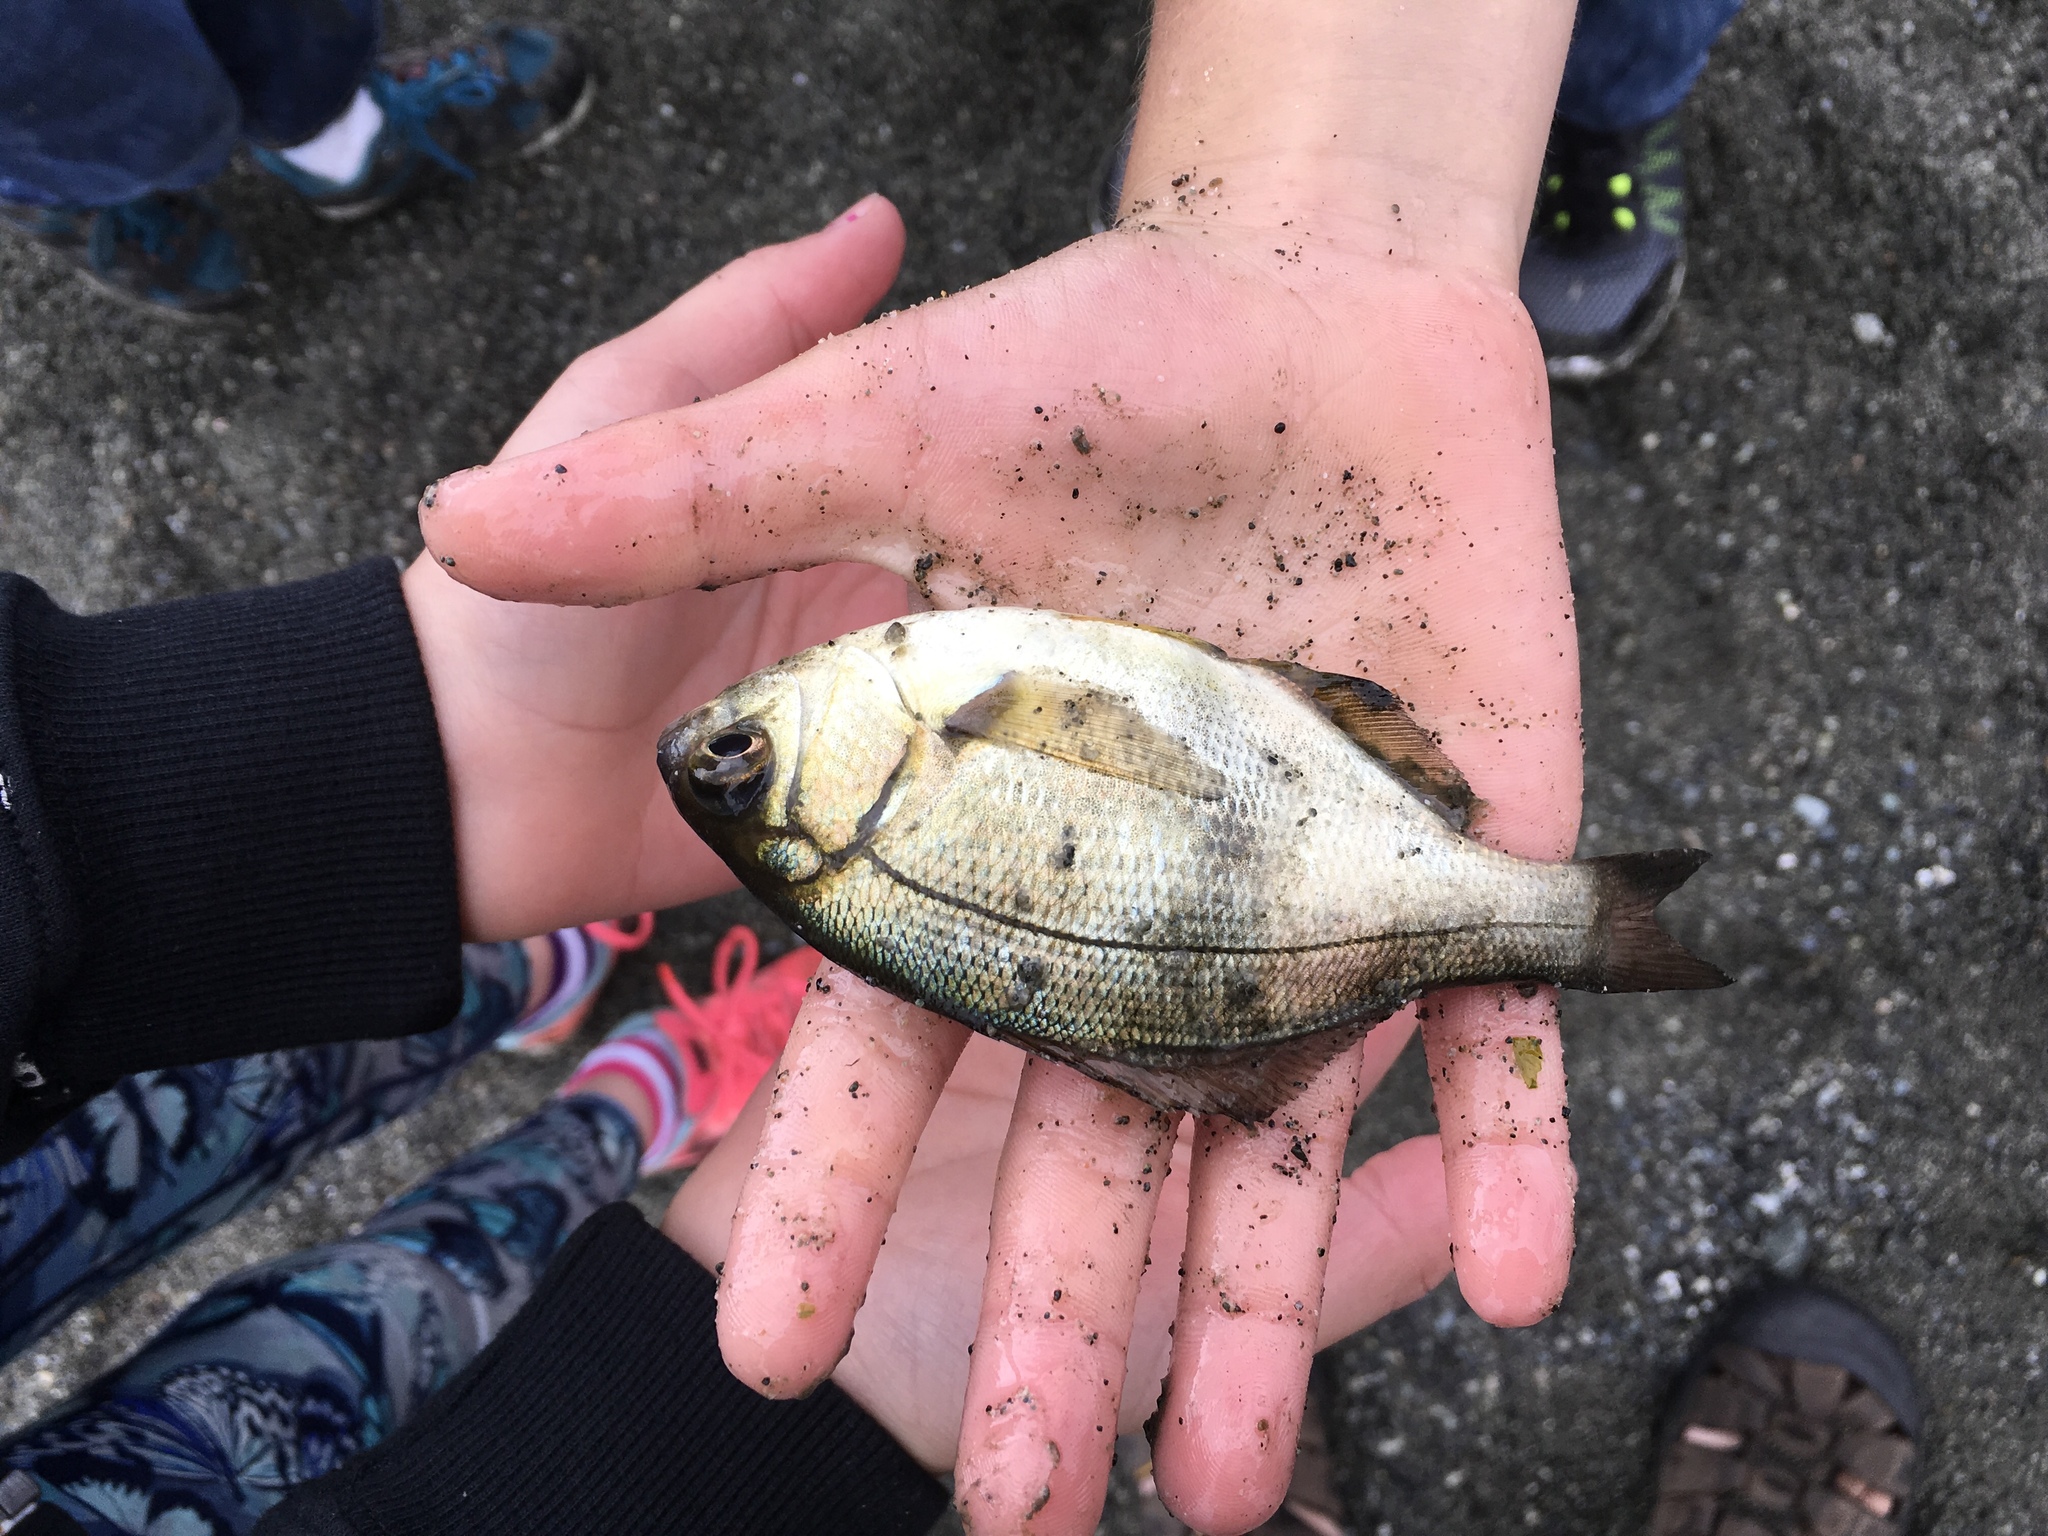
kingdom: Animalia
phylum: Chordata
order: Perciformes
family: Embiotocidae
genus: Rhacochilus
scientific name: Rhacochilus vacca
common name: Pile perch
